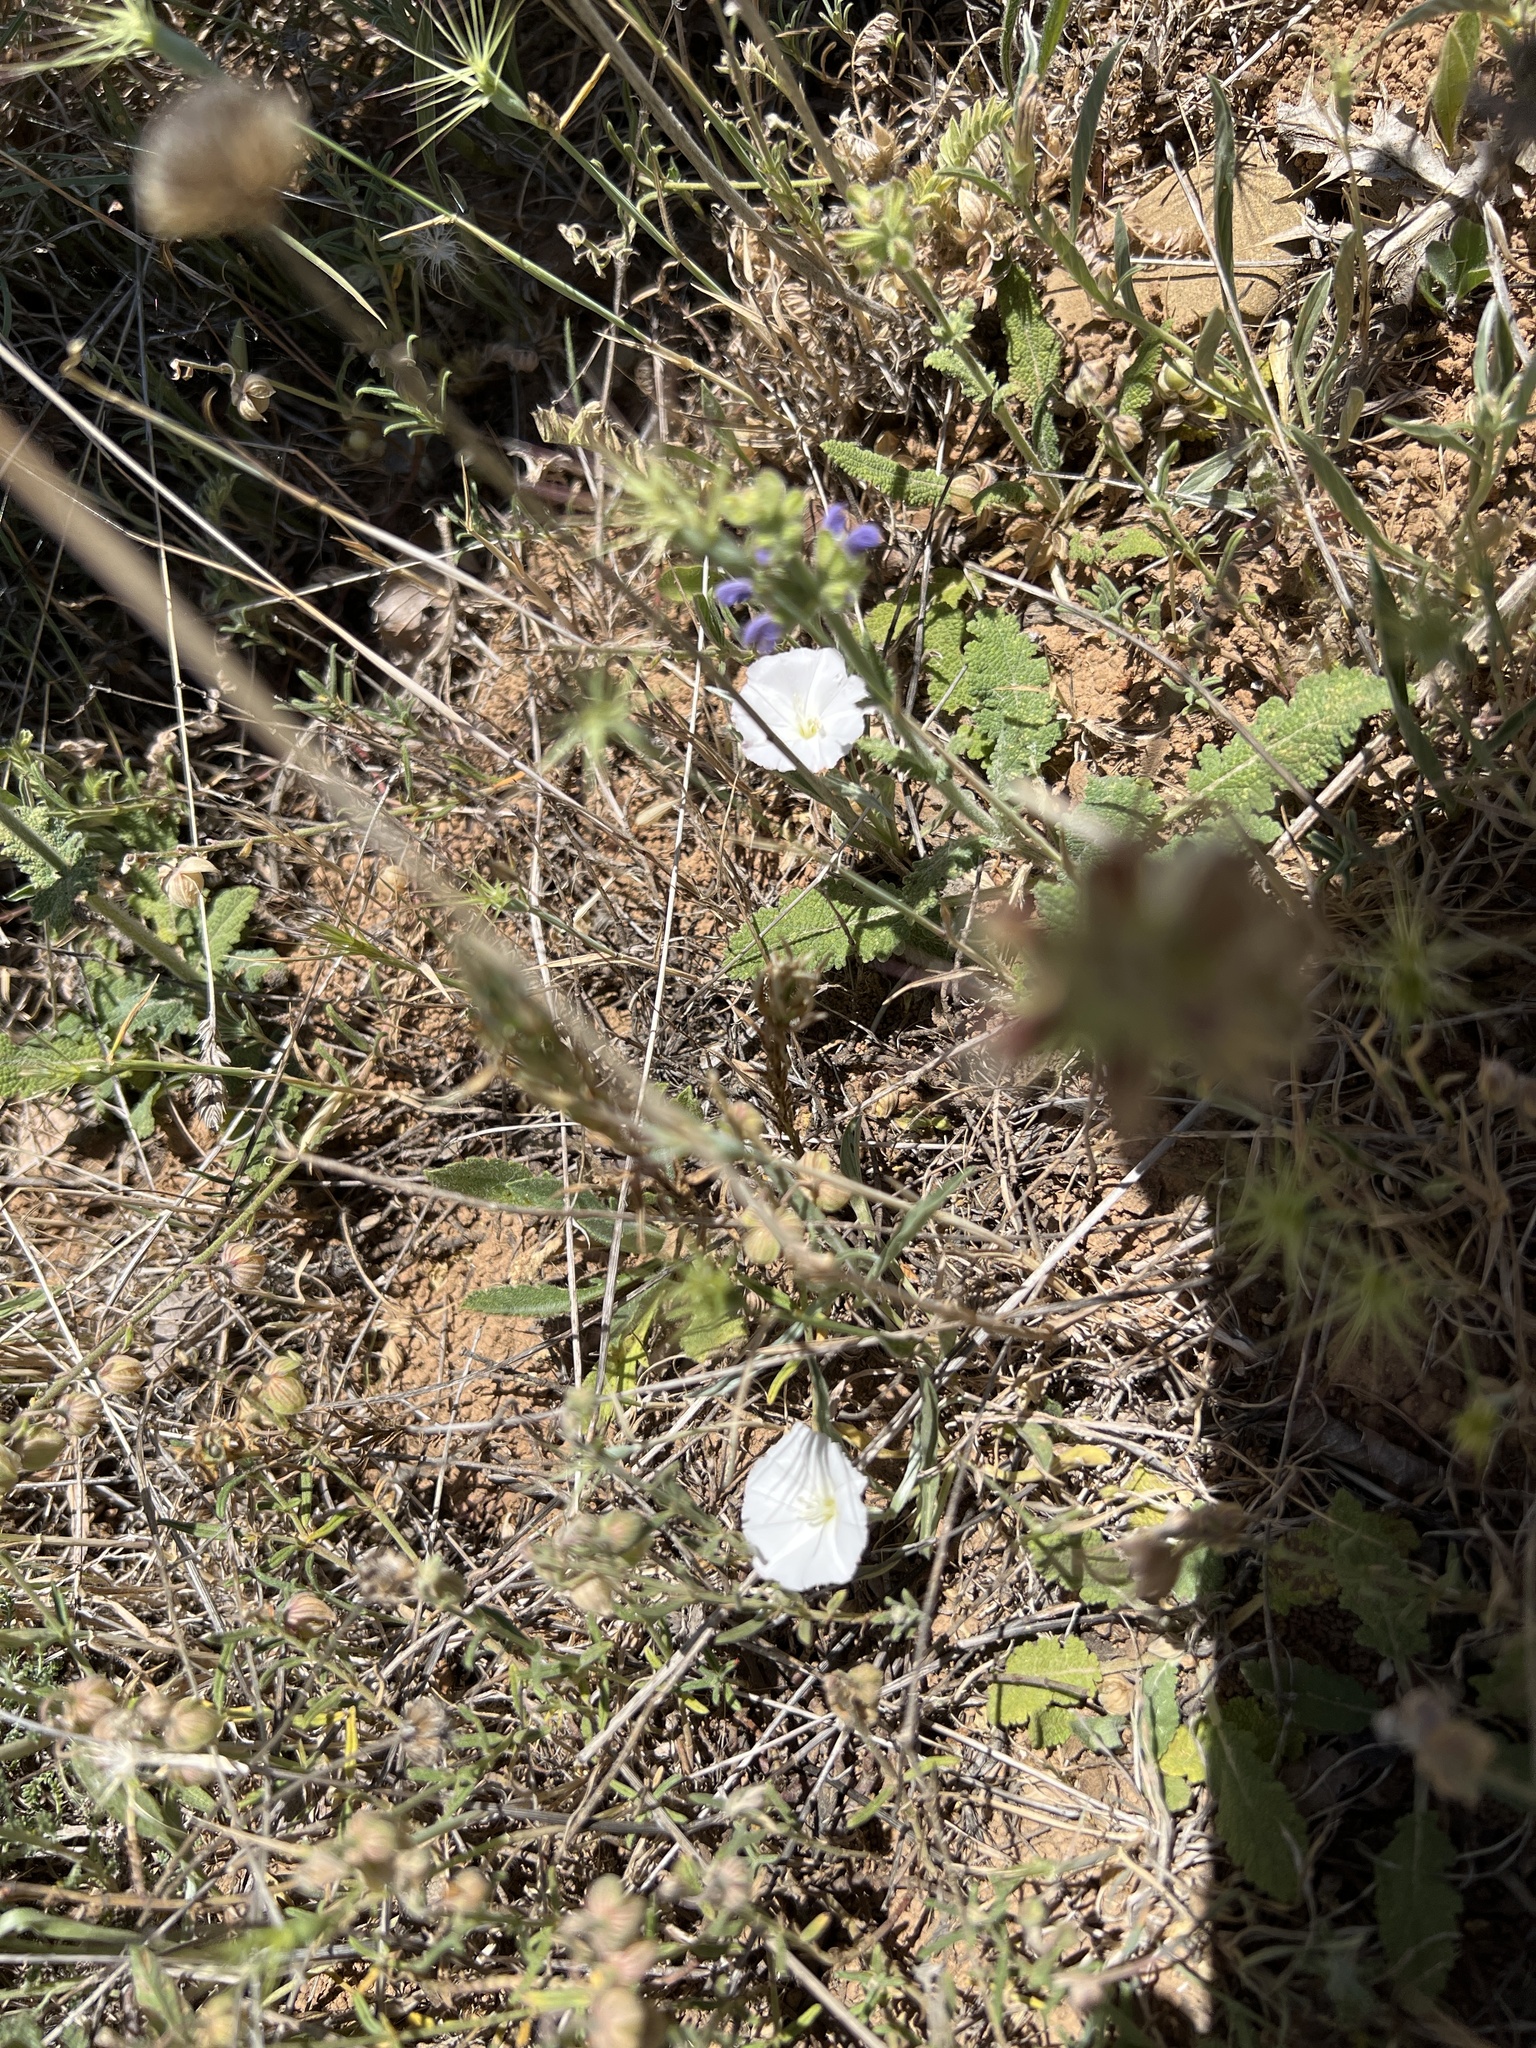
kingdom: Plantae
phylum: Tracheophyta
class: Magnoliopsida
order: Solanales
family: Convolvulaceae
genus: Convolvulus
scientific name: Convolvulus lineatus
